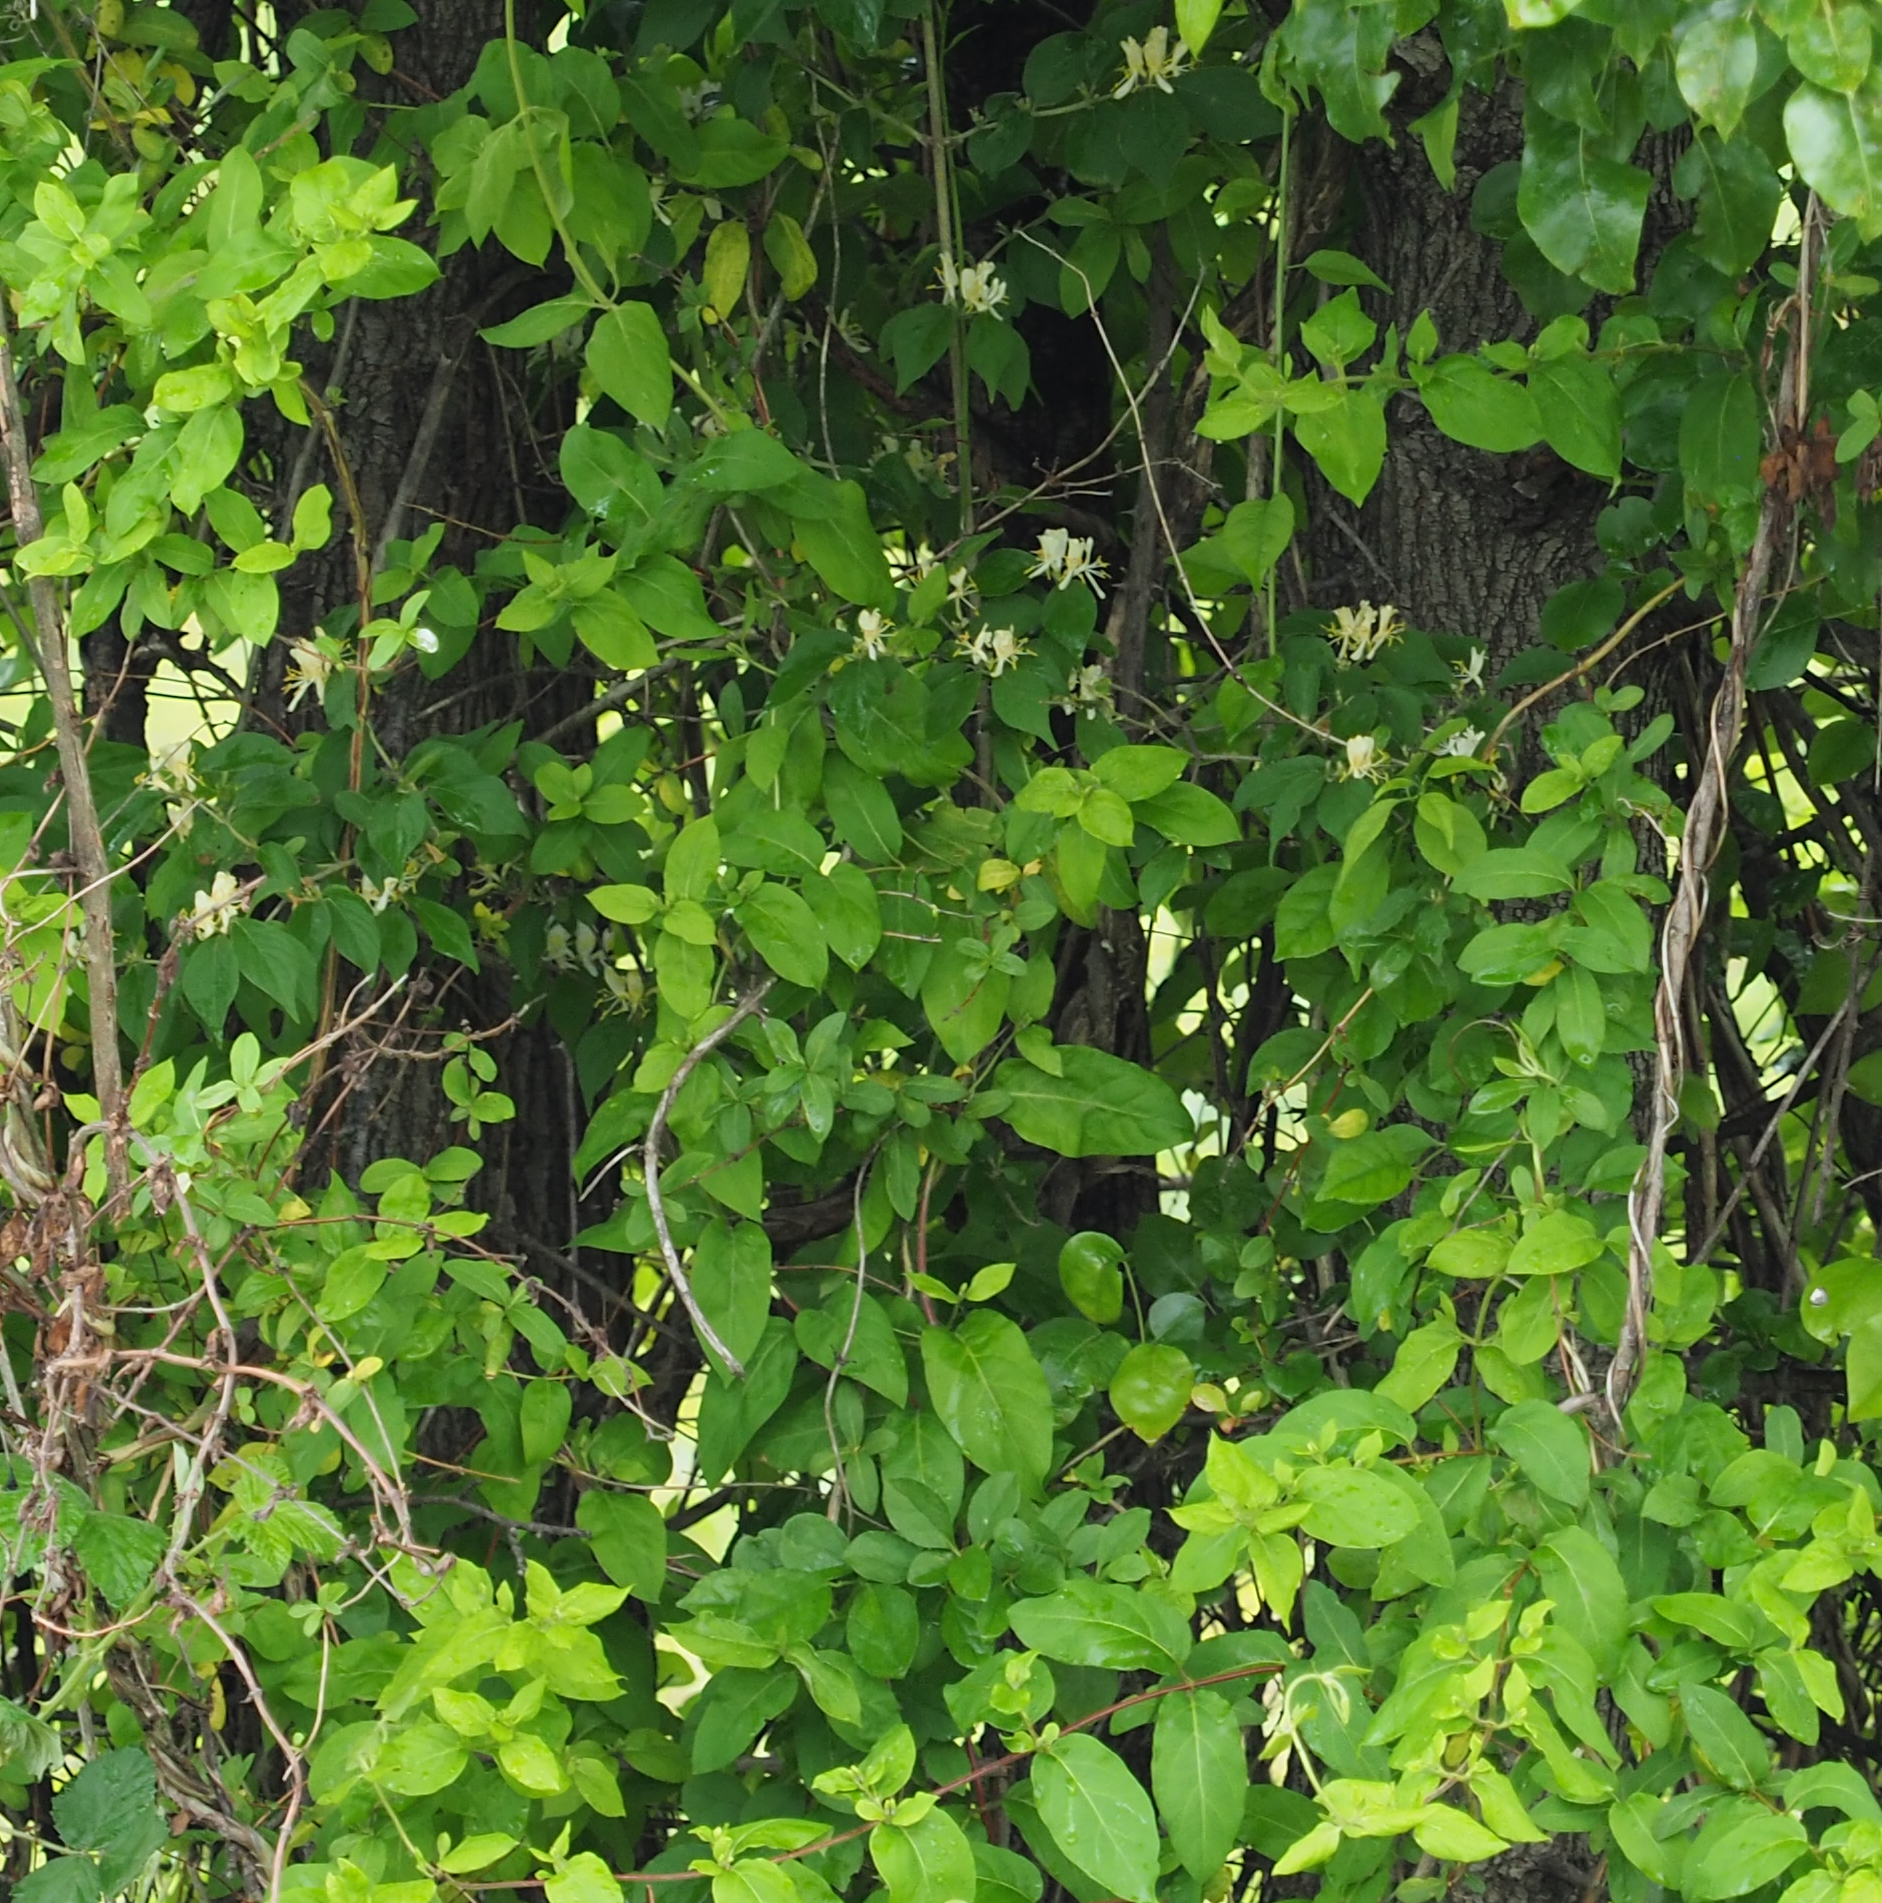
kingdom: Plantae
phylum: Tracheophyta
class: Magnoliopsida
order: Dipsacales
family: Caprifoliaceae
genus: Lonicera
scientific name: Lonicera japonica
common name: Japanese honeysuckle
